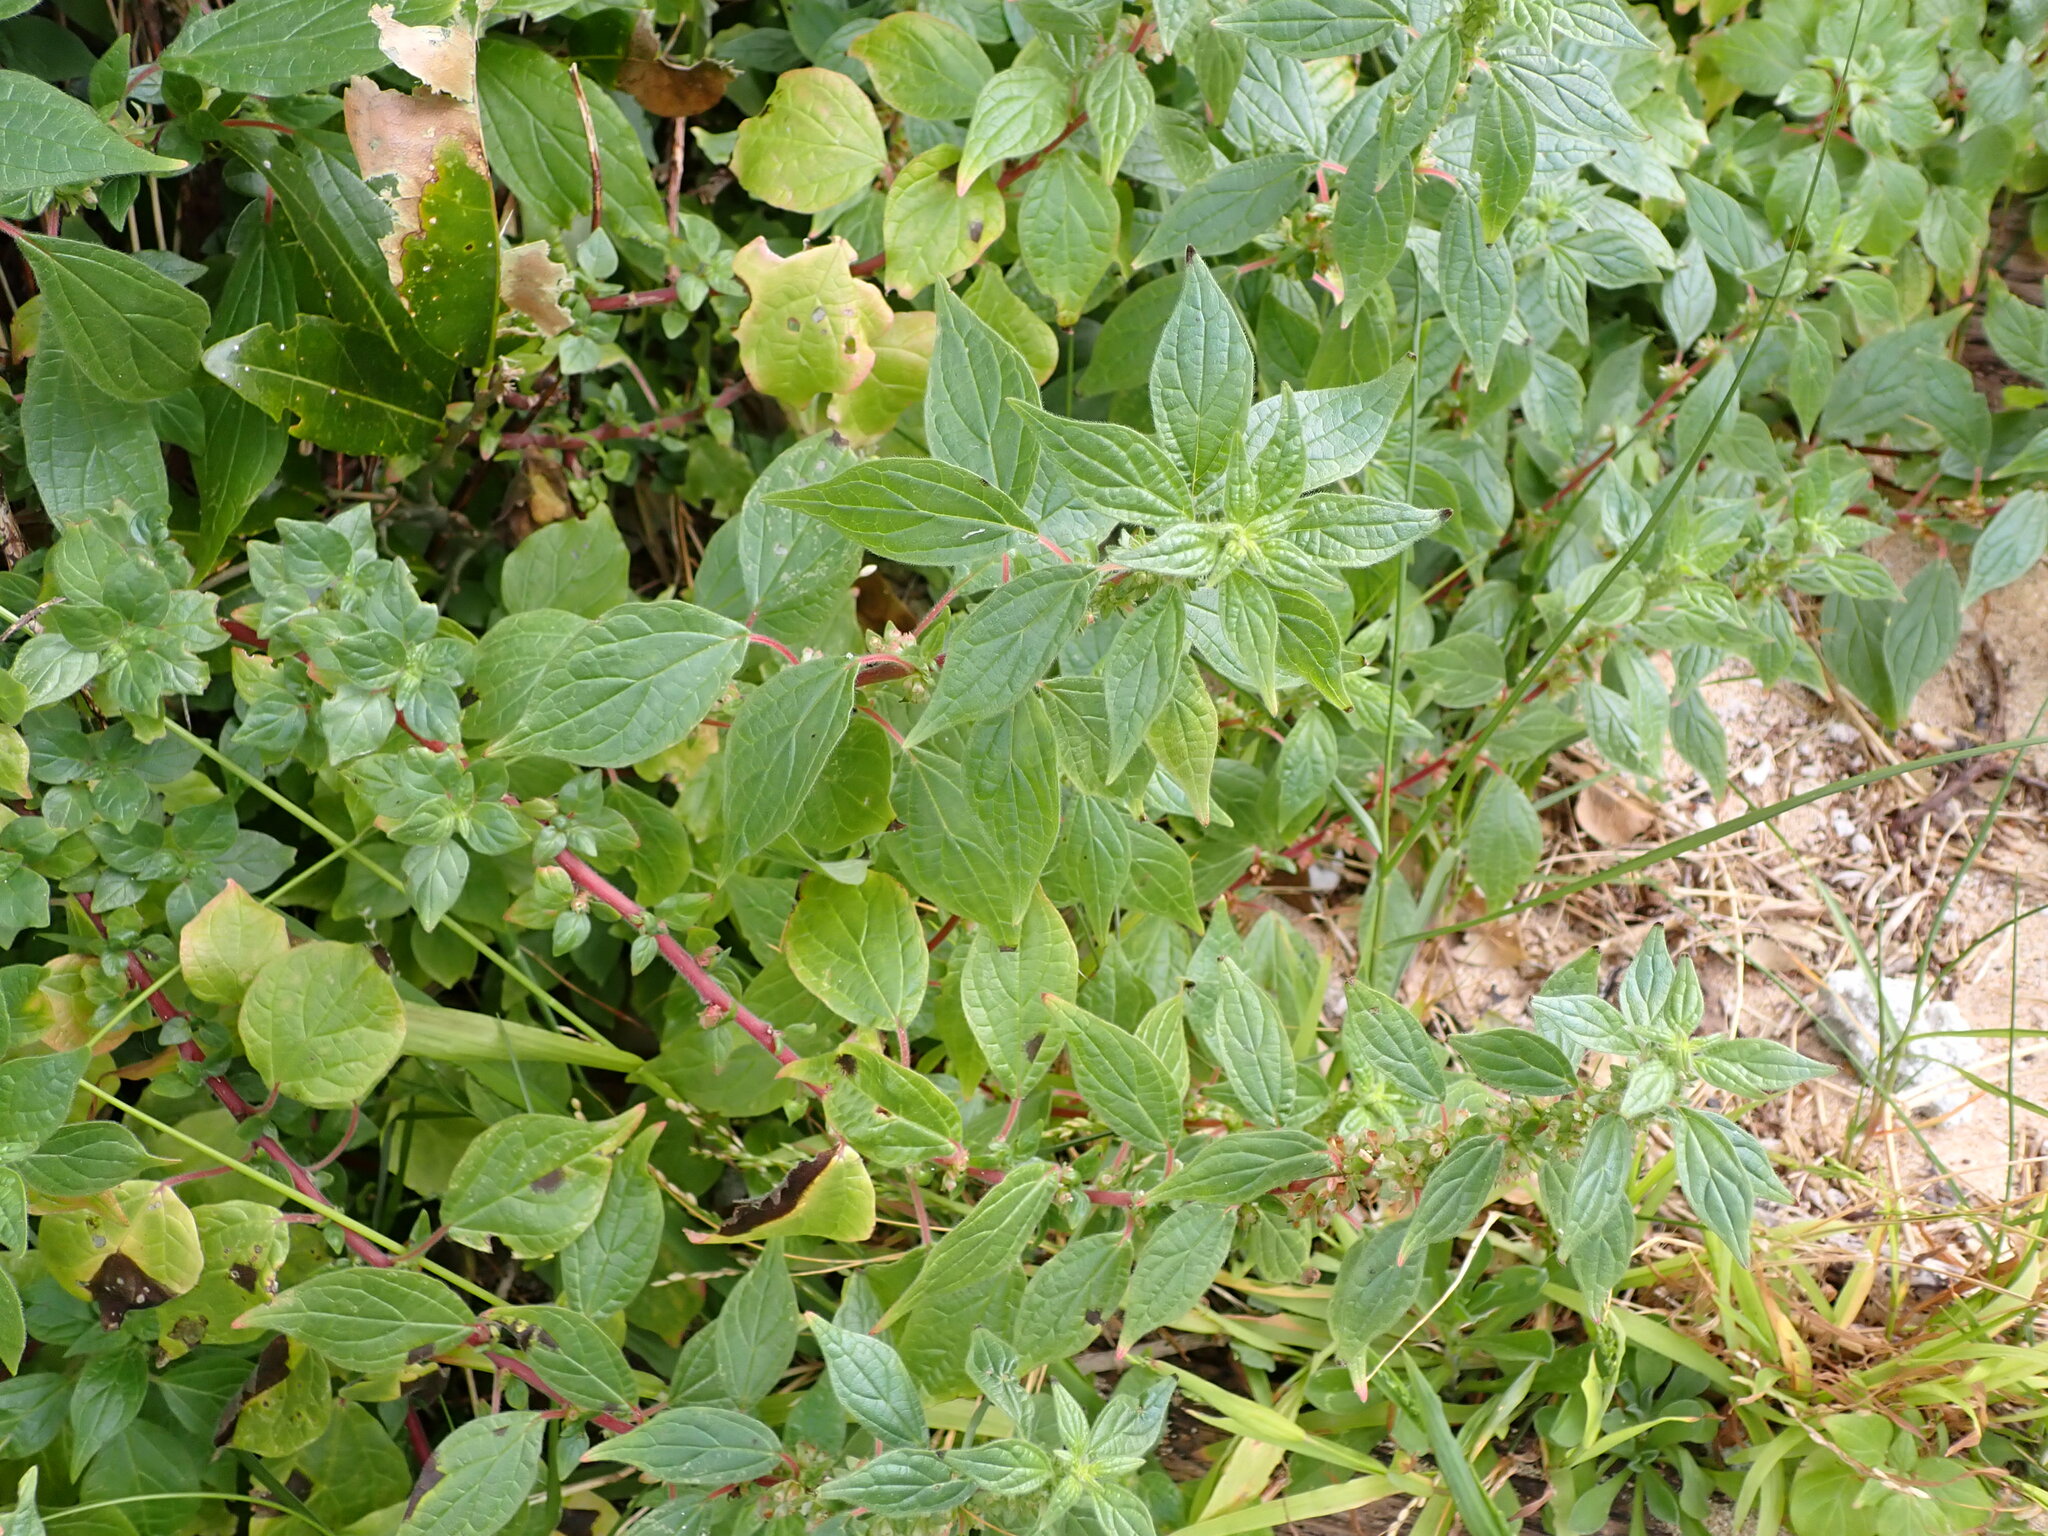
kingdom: Plantae
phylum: Tracheophyta
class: Magnoliopsida
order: Rosales
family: Urticaceae
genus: Parietaria
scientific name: Parietaria judaica
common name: Pellitory-of-the-wall
